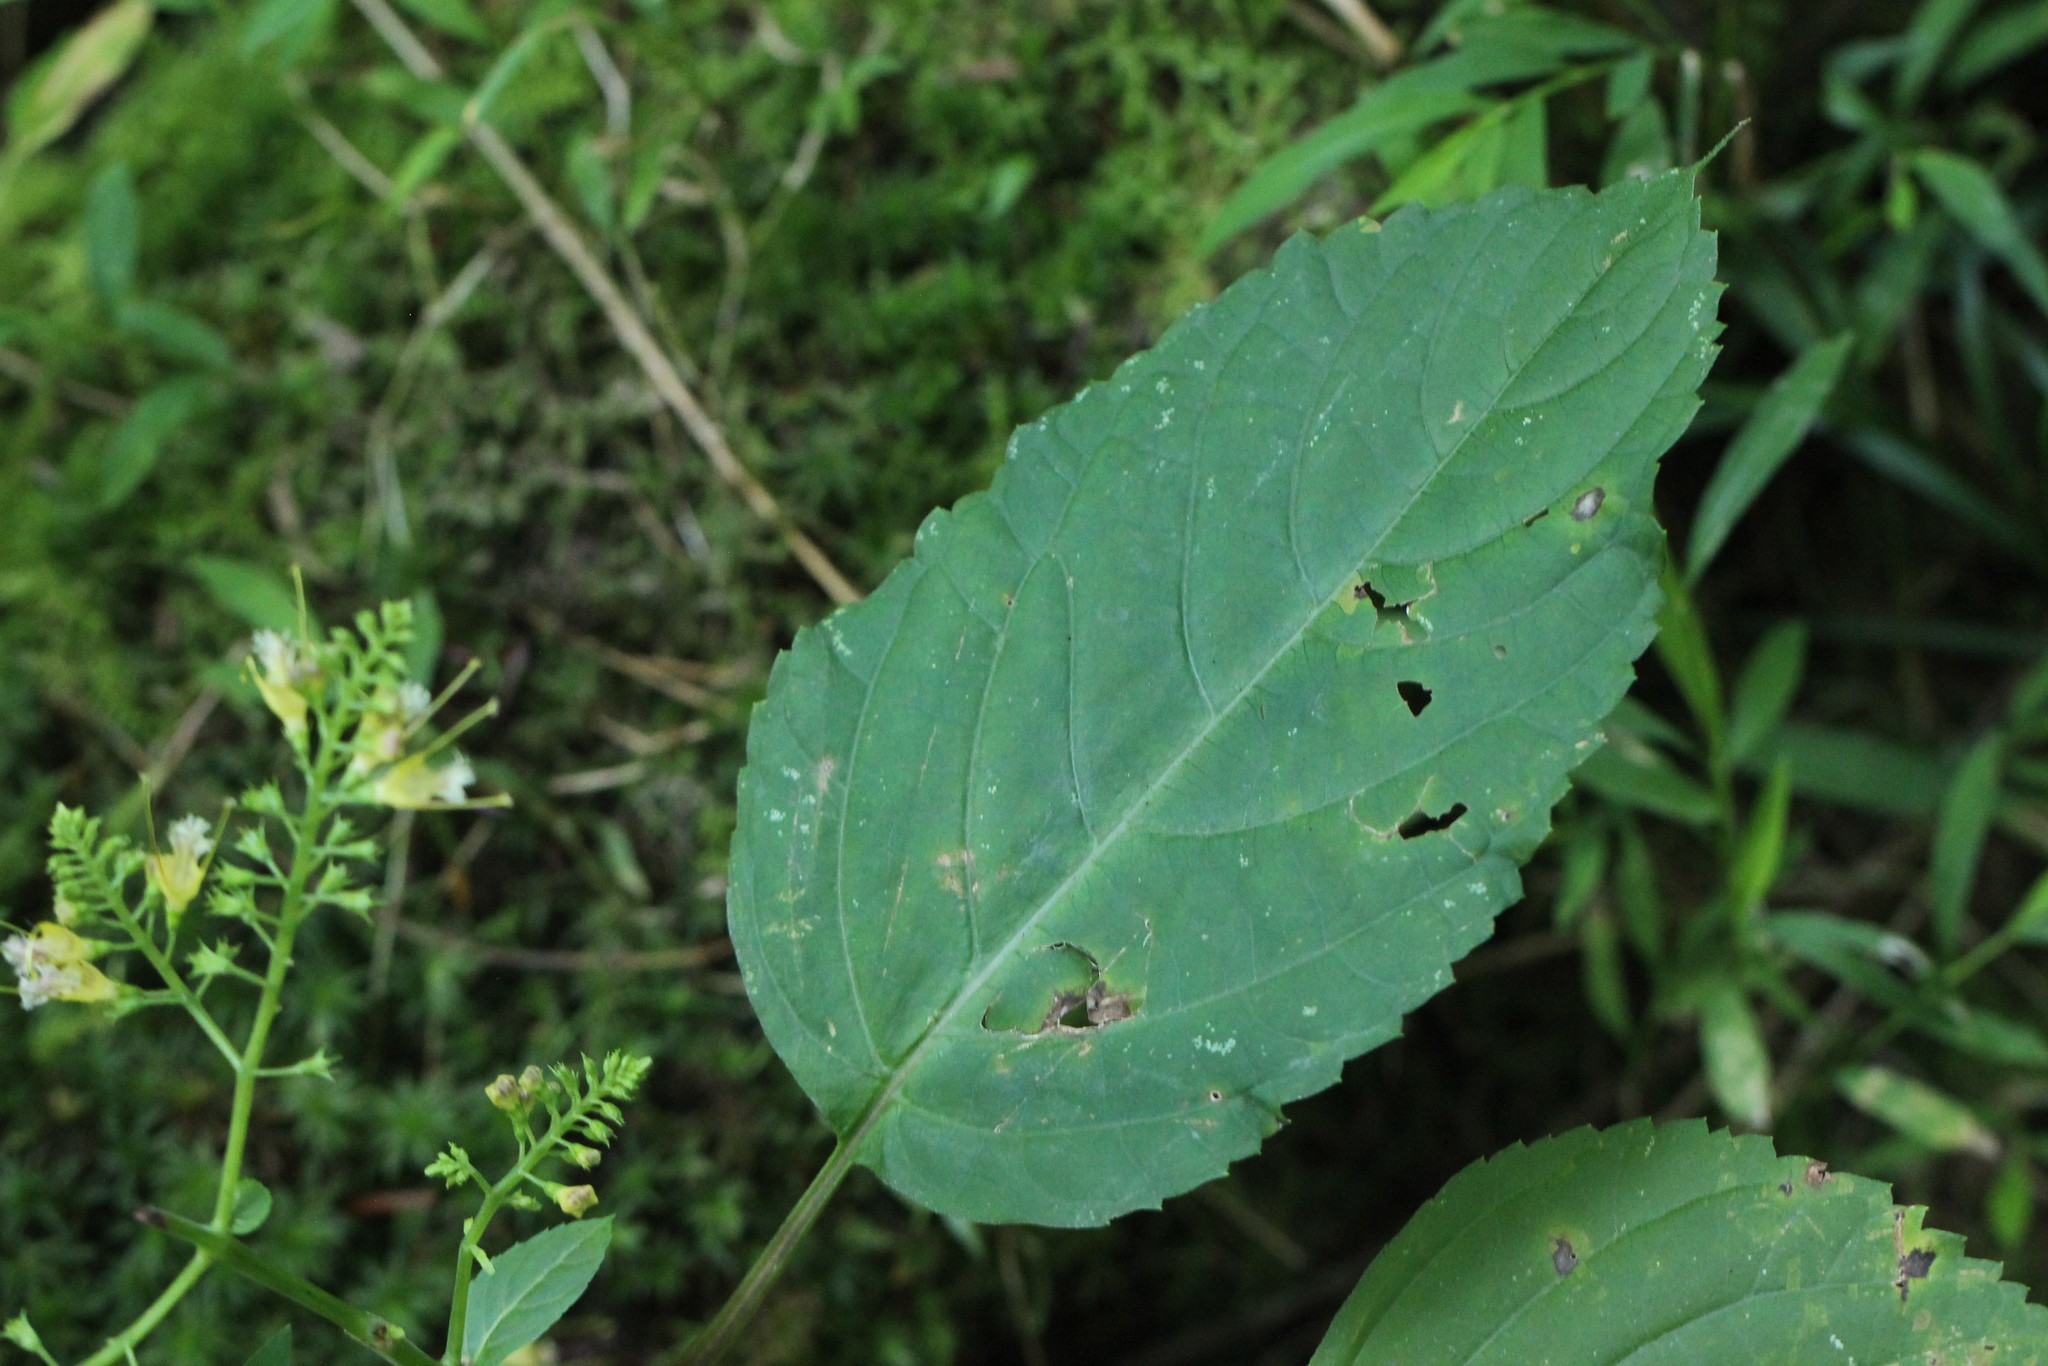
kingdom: Plantae
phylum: Tracheophyta
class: Magnoliopsida
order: Lamiales
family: Lamiaceae
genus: Collinsonia
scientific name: Collinsonia canadensis
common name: Northern horsebalm
